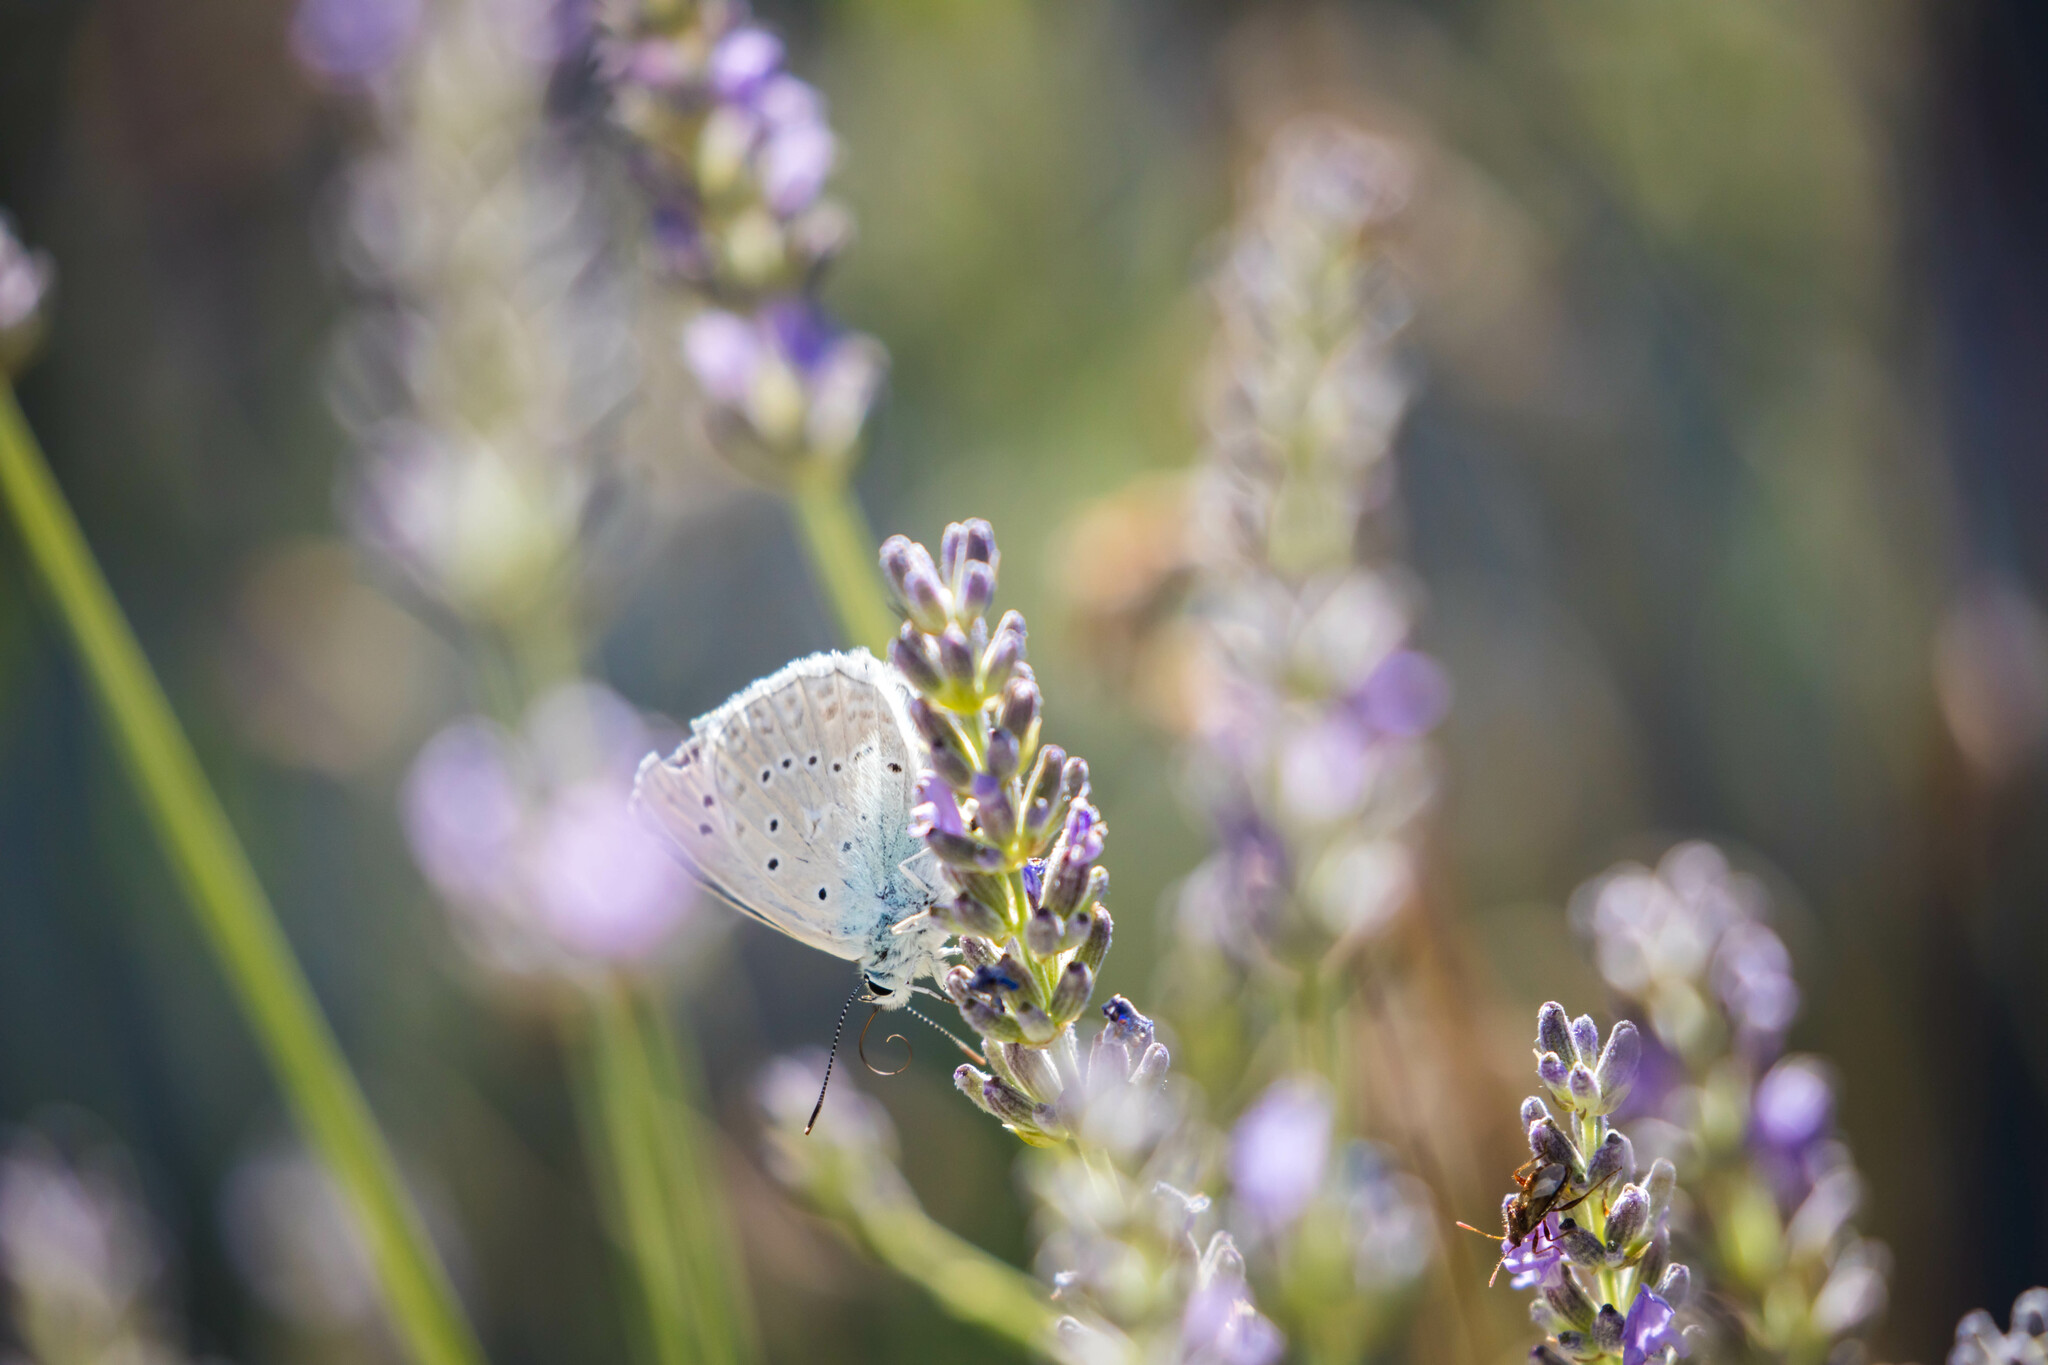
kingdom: Animalia
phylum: Arthropoda
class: Insecta
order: Lepidoptera
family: Lycaenidae
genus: Polyommatus
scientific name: Polyommatus daphnis
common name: Meleager's blue
